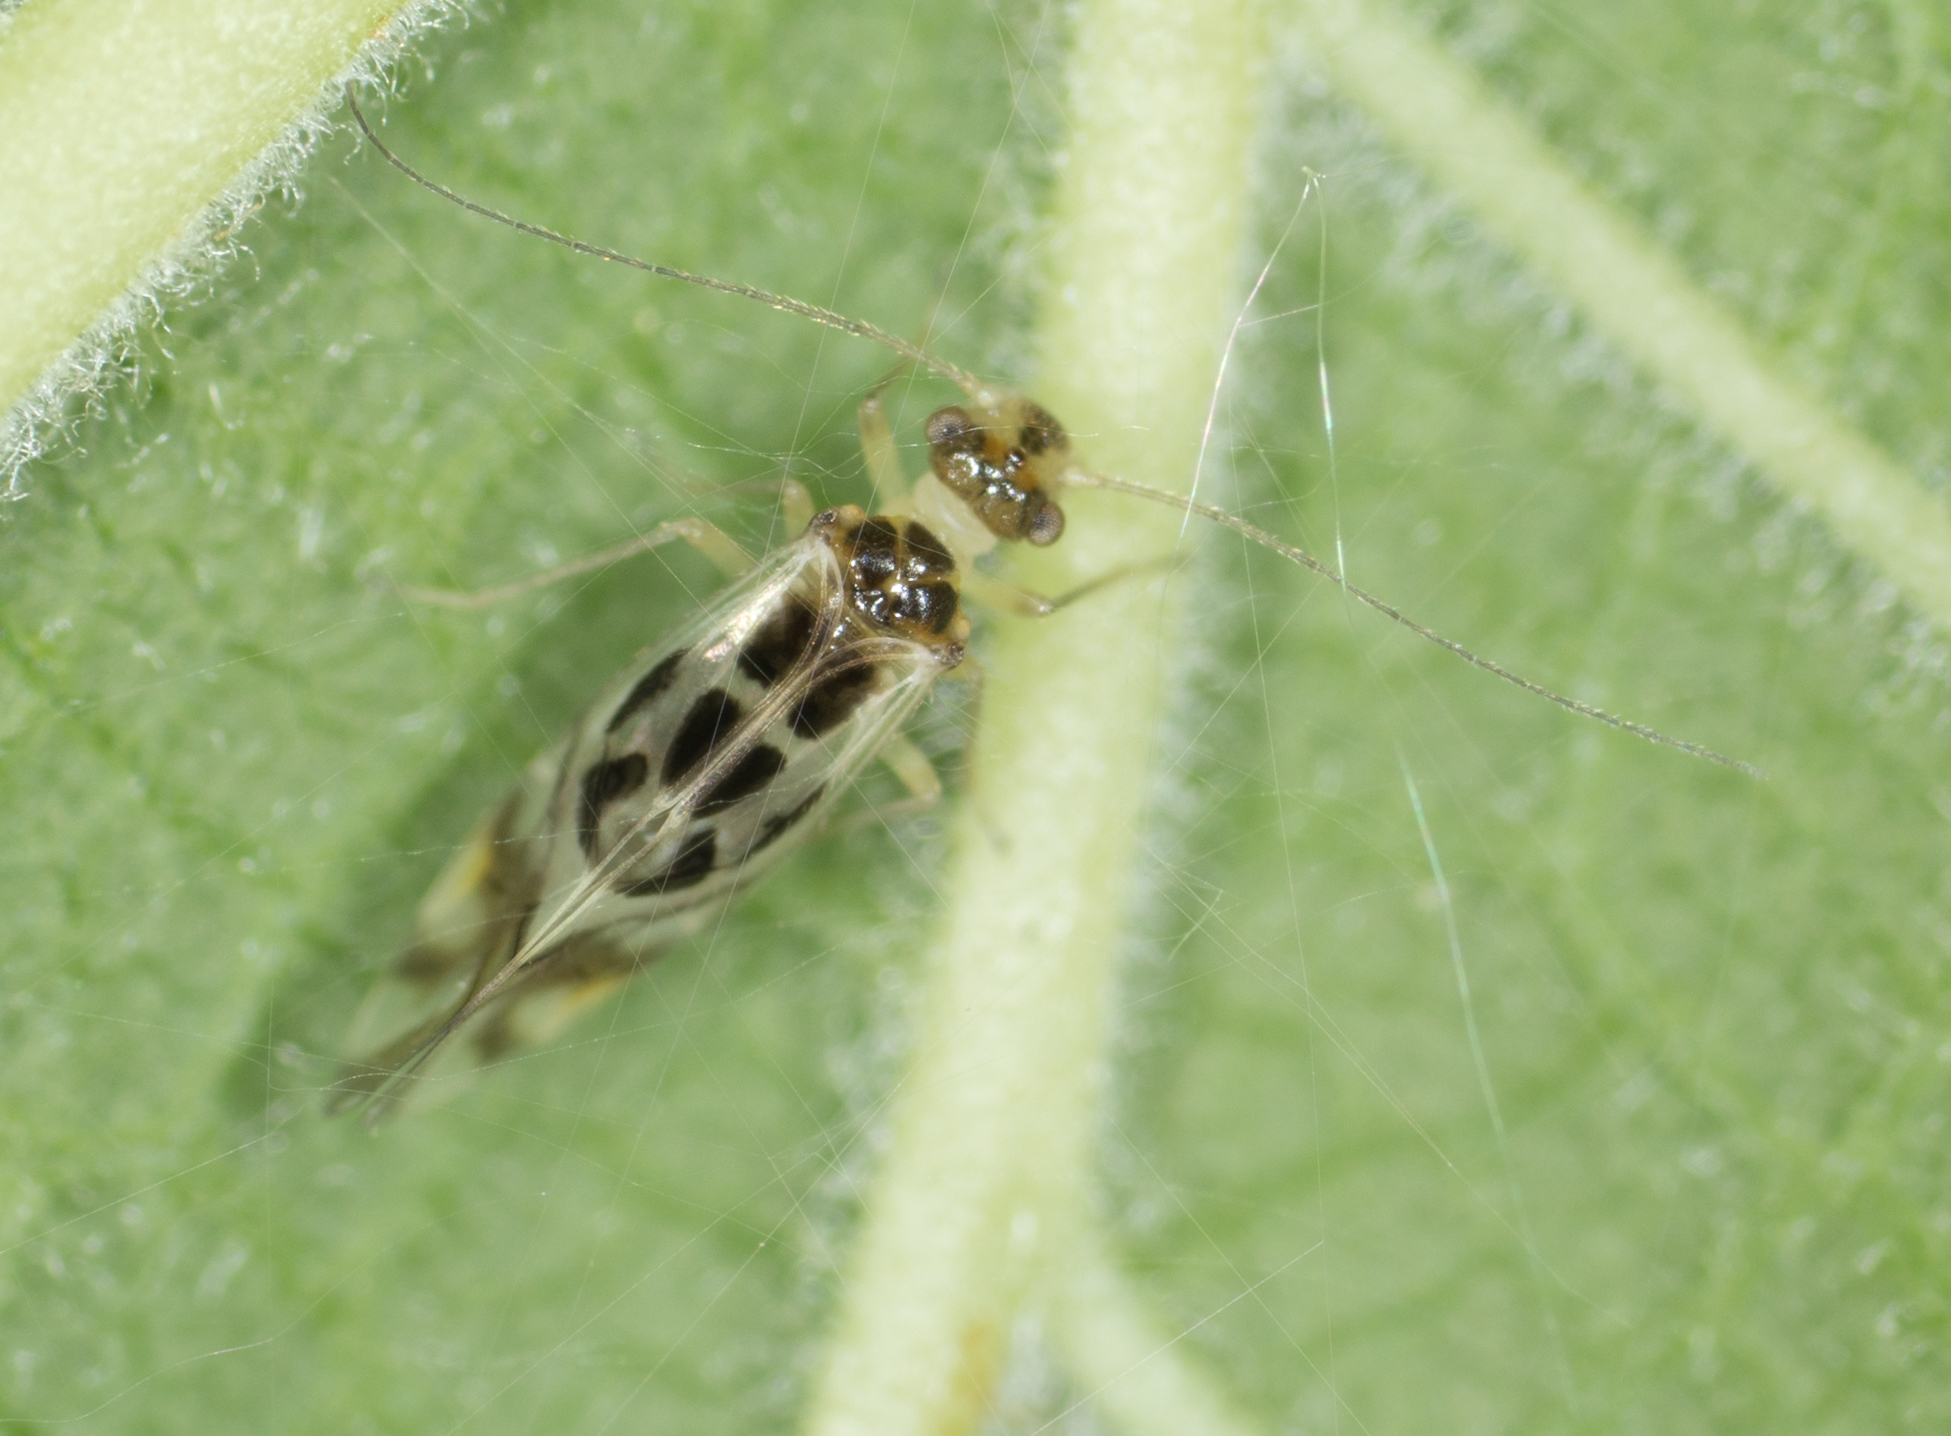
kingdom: Animalia
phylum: Arthropoda
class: Insecta
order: Psocodea
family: Stenopsocidae
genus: Graphopsocus
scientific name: Graphopsocus cruciatus
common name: Lizard bark louse
